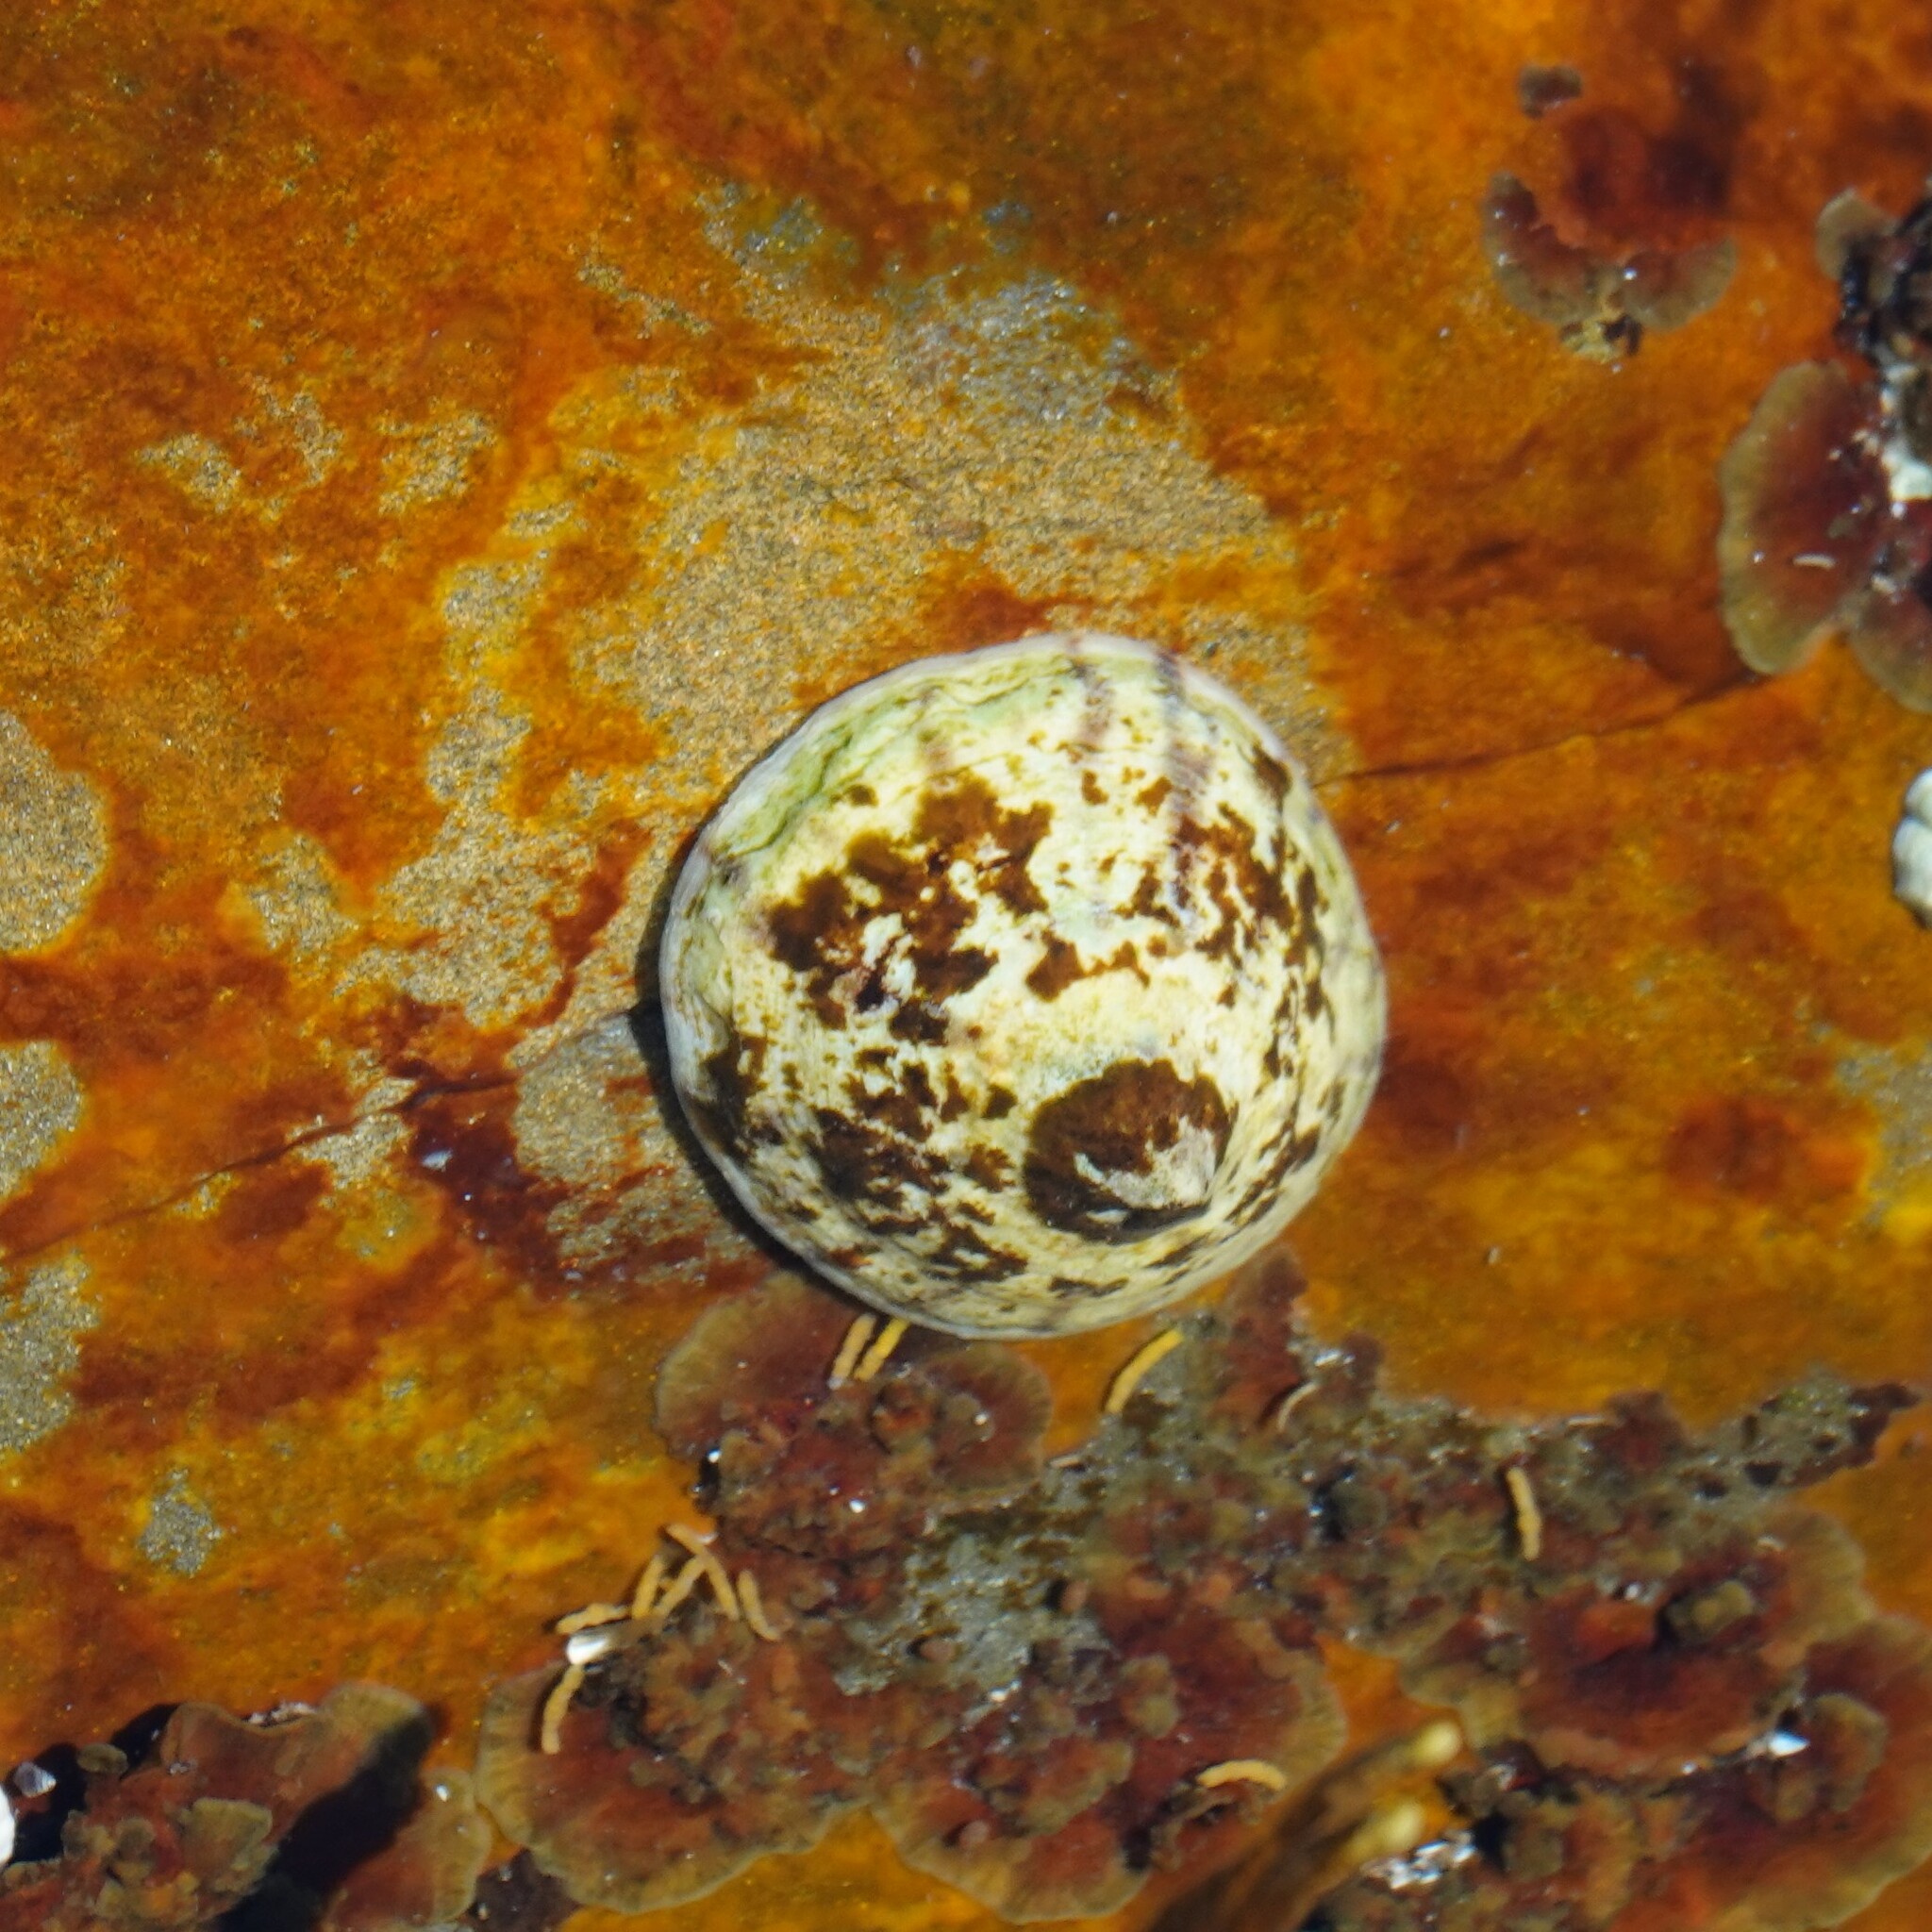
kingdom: Animalia
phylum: Mollusca
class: Gastropoda
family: Lottiidae
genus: Testudinalia
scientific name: Testudinalia testudinalis
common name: Common tortoiseshell limpet
